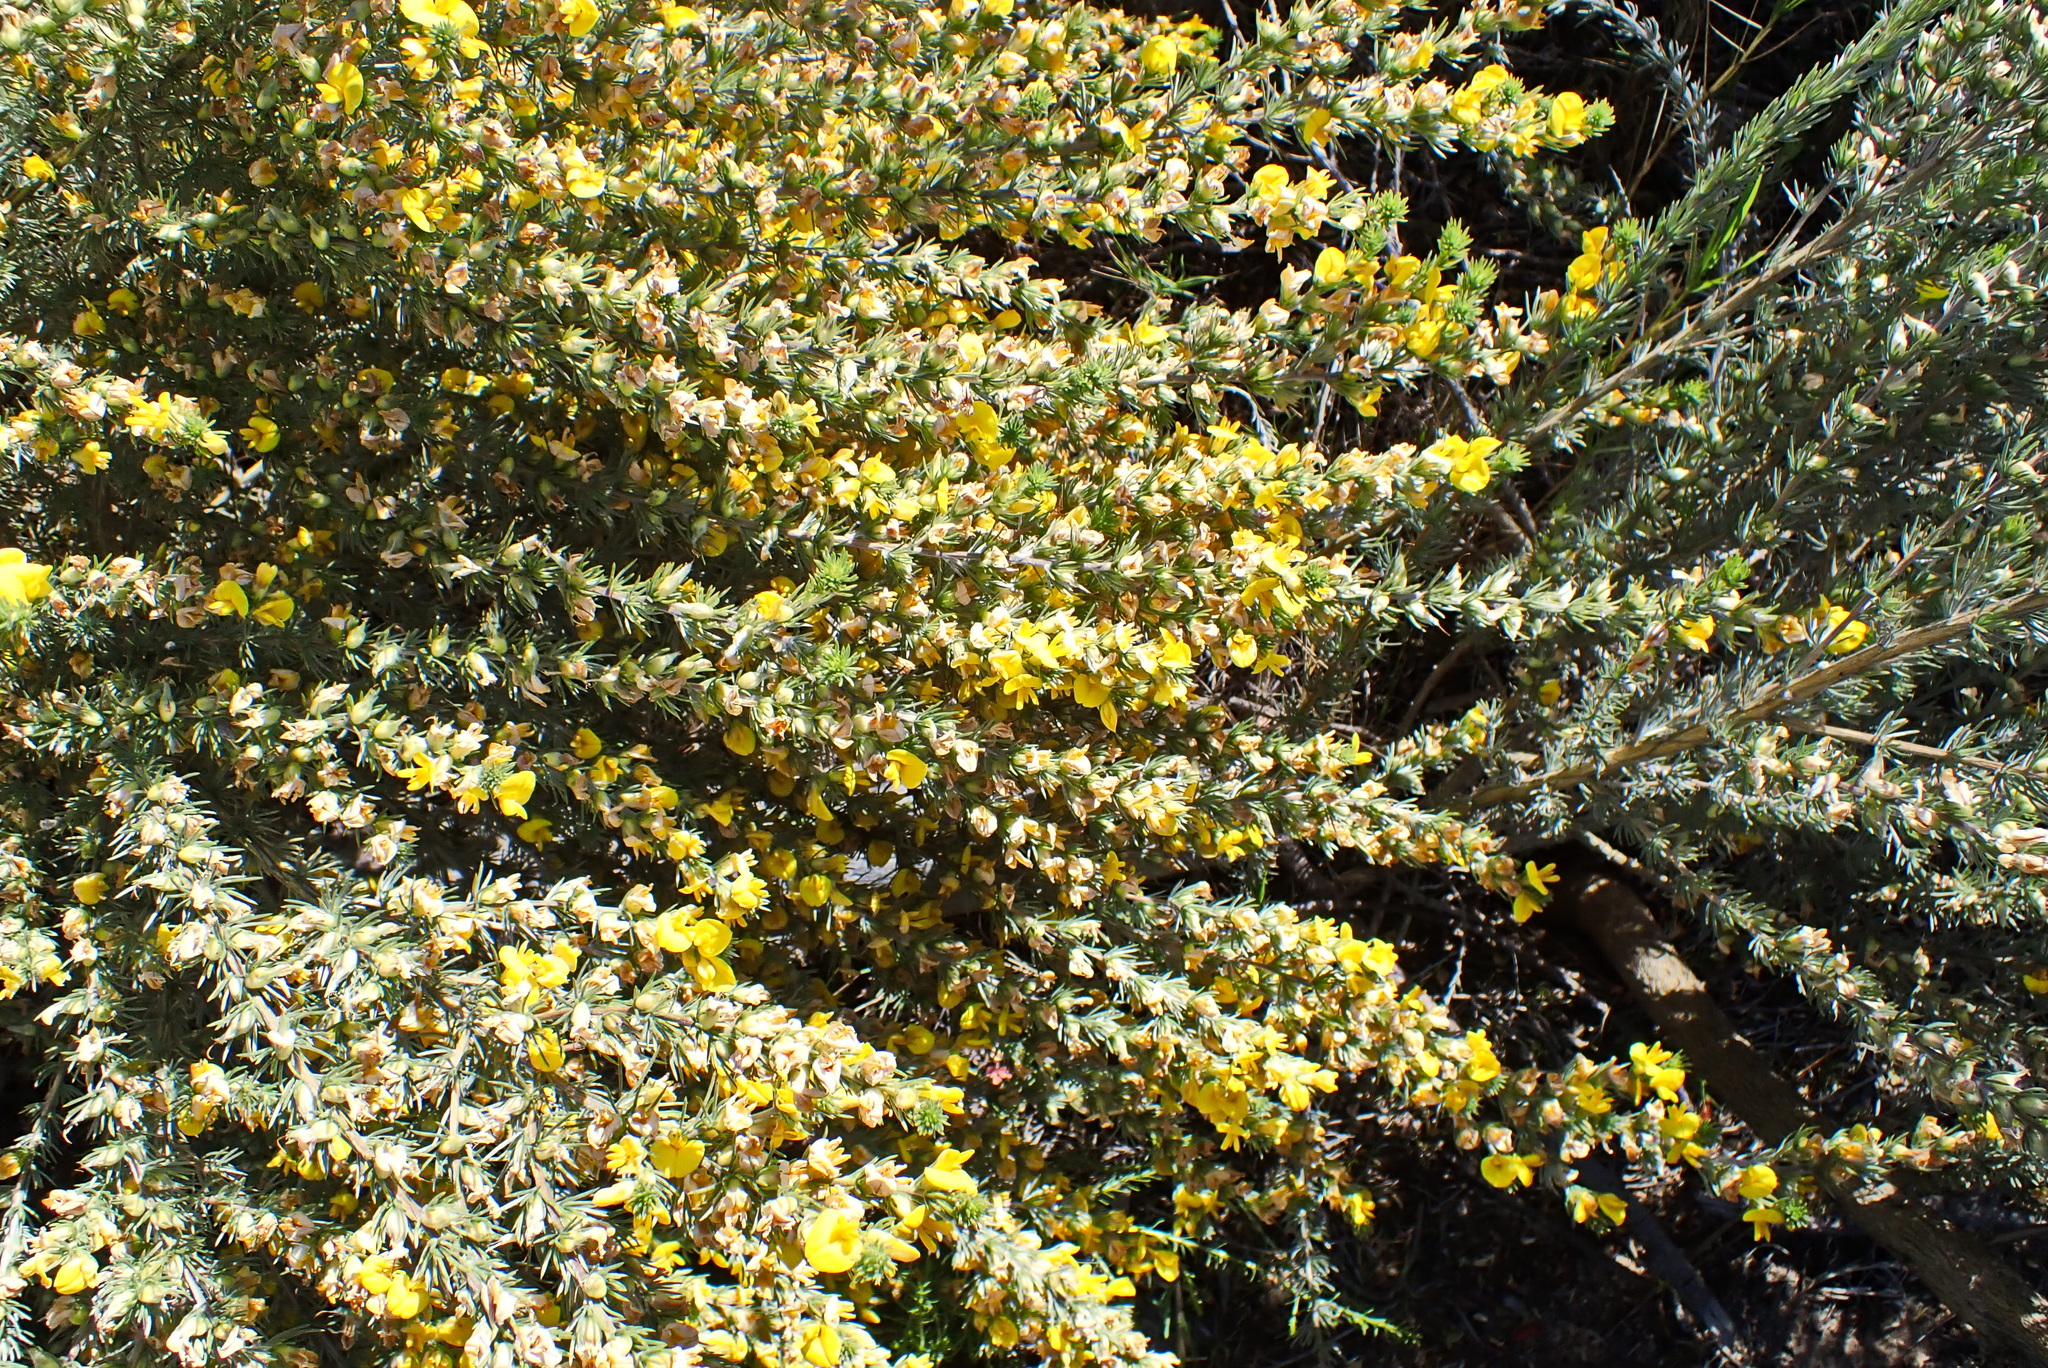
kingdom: Plantae
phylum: Tracheophyta
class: Magnoliopsida
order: Fabales
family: Fabaceae
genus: Aspalathus
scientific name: Aspalathus glabrescens
